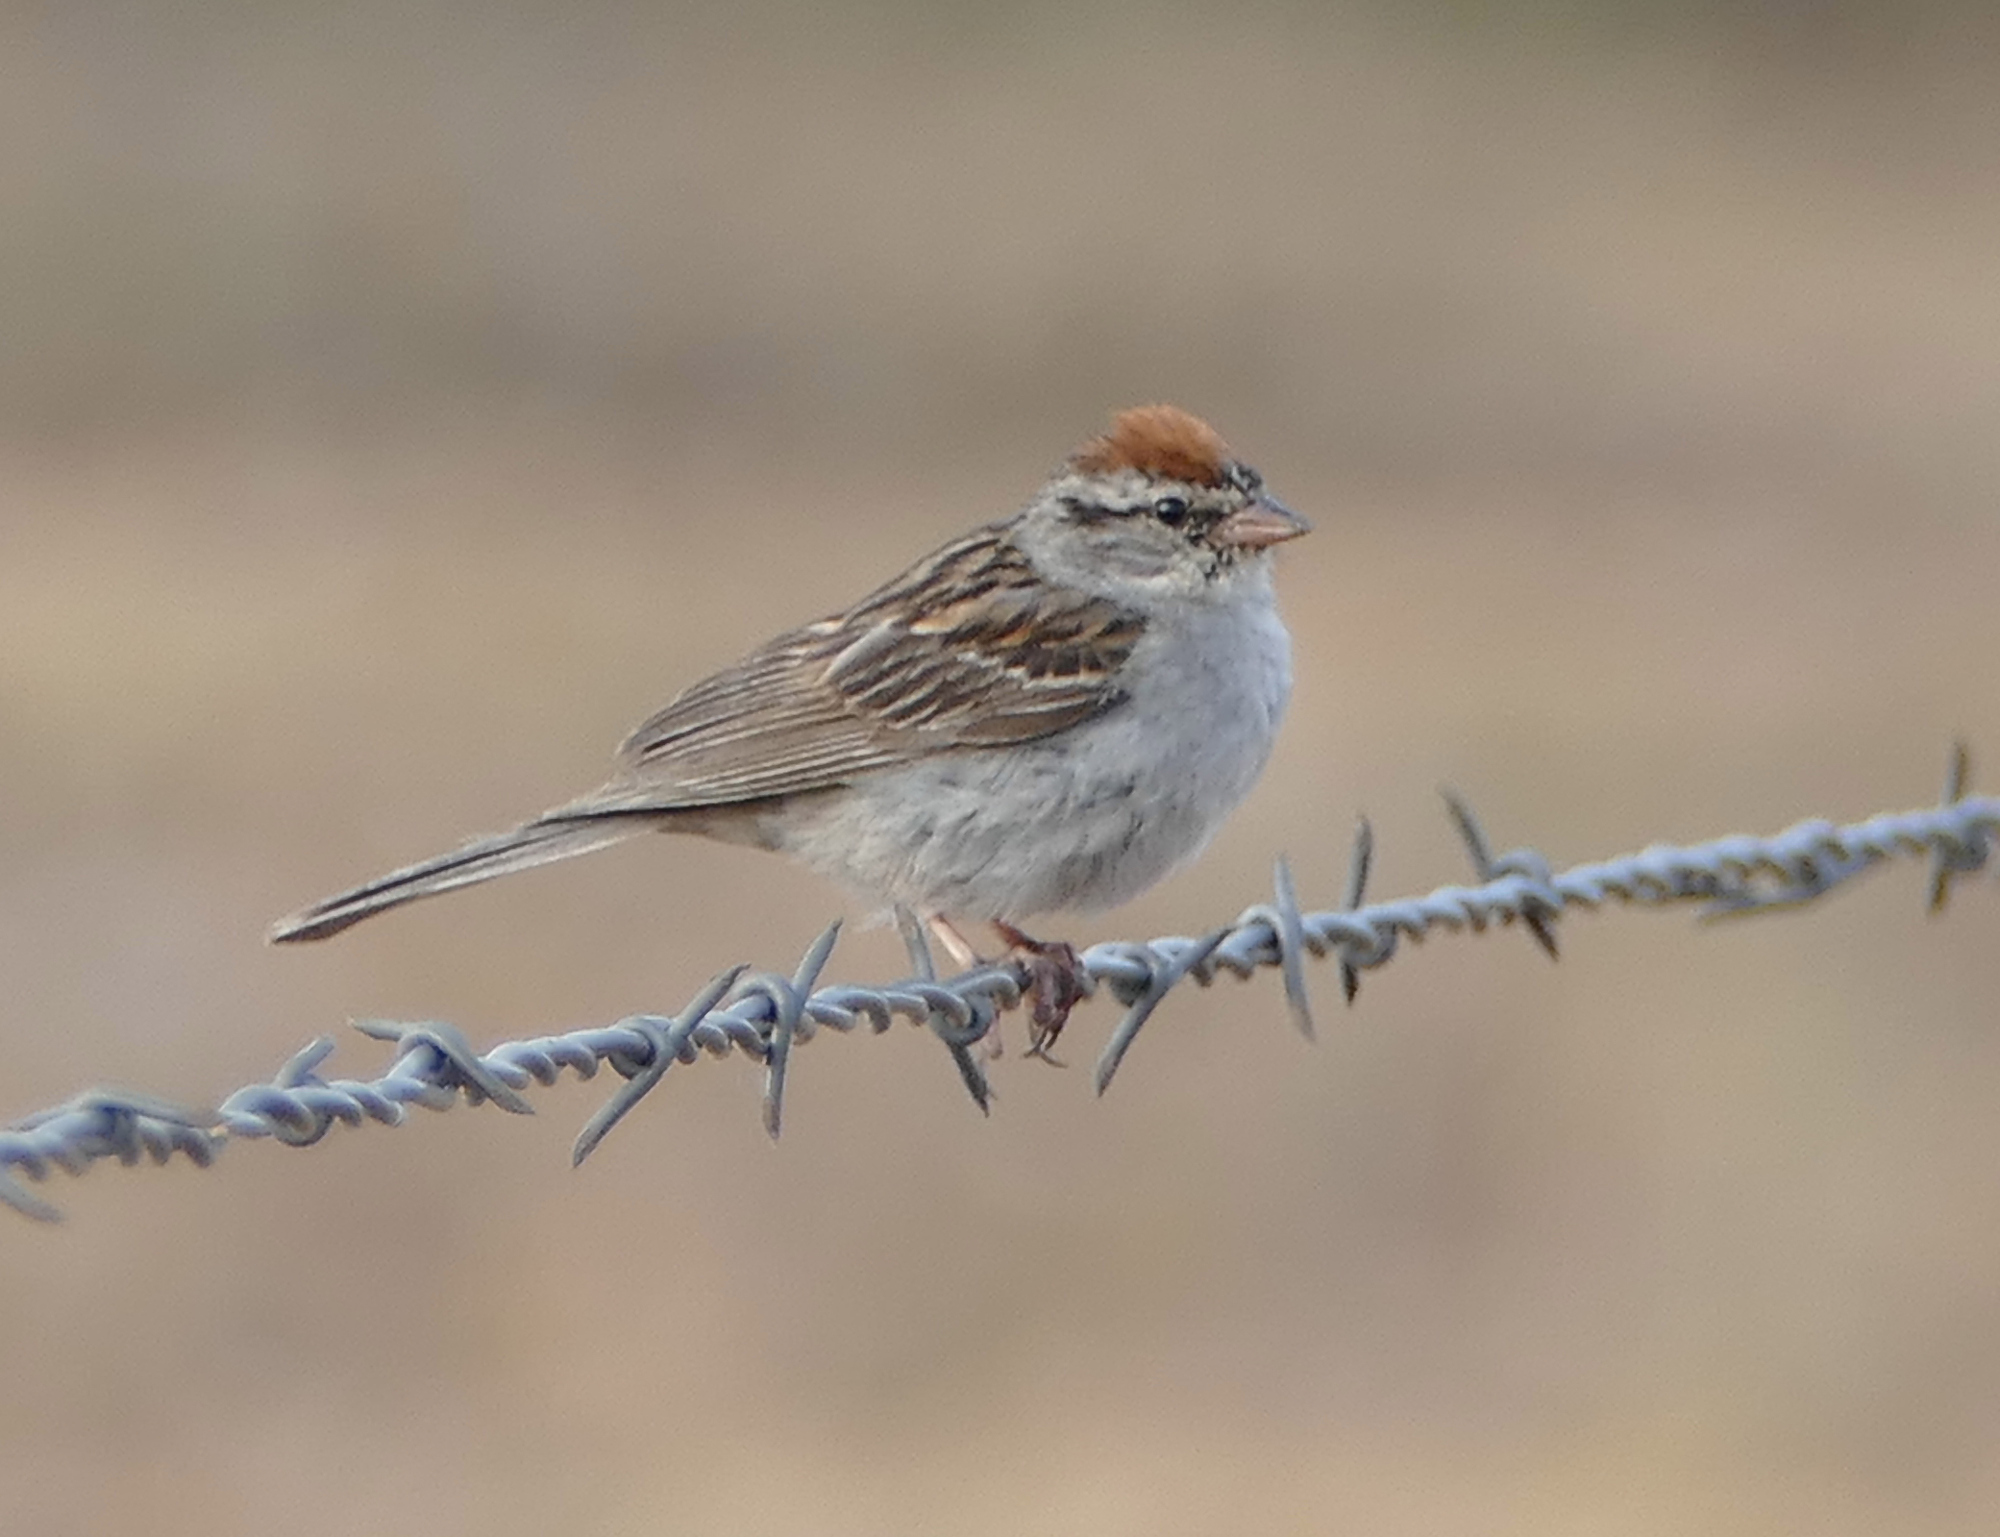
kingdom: Animalia
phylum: Chordata
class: Aves
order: Passeriformes
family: Passerellidae
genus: Spizella
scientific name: Spizella passerina
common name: Chipping sparrow
